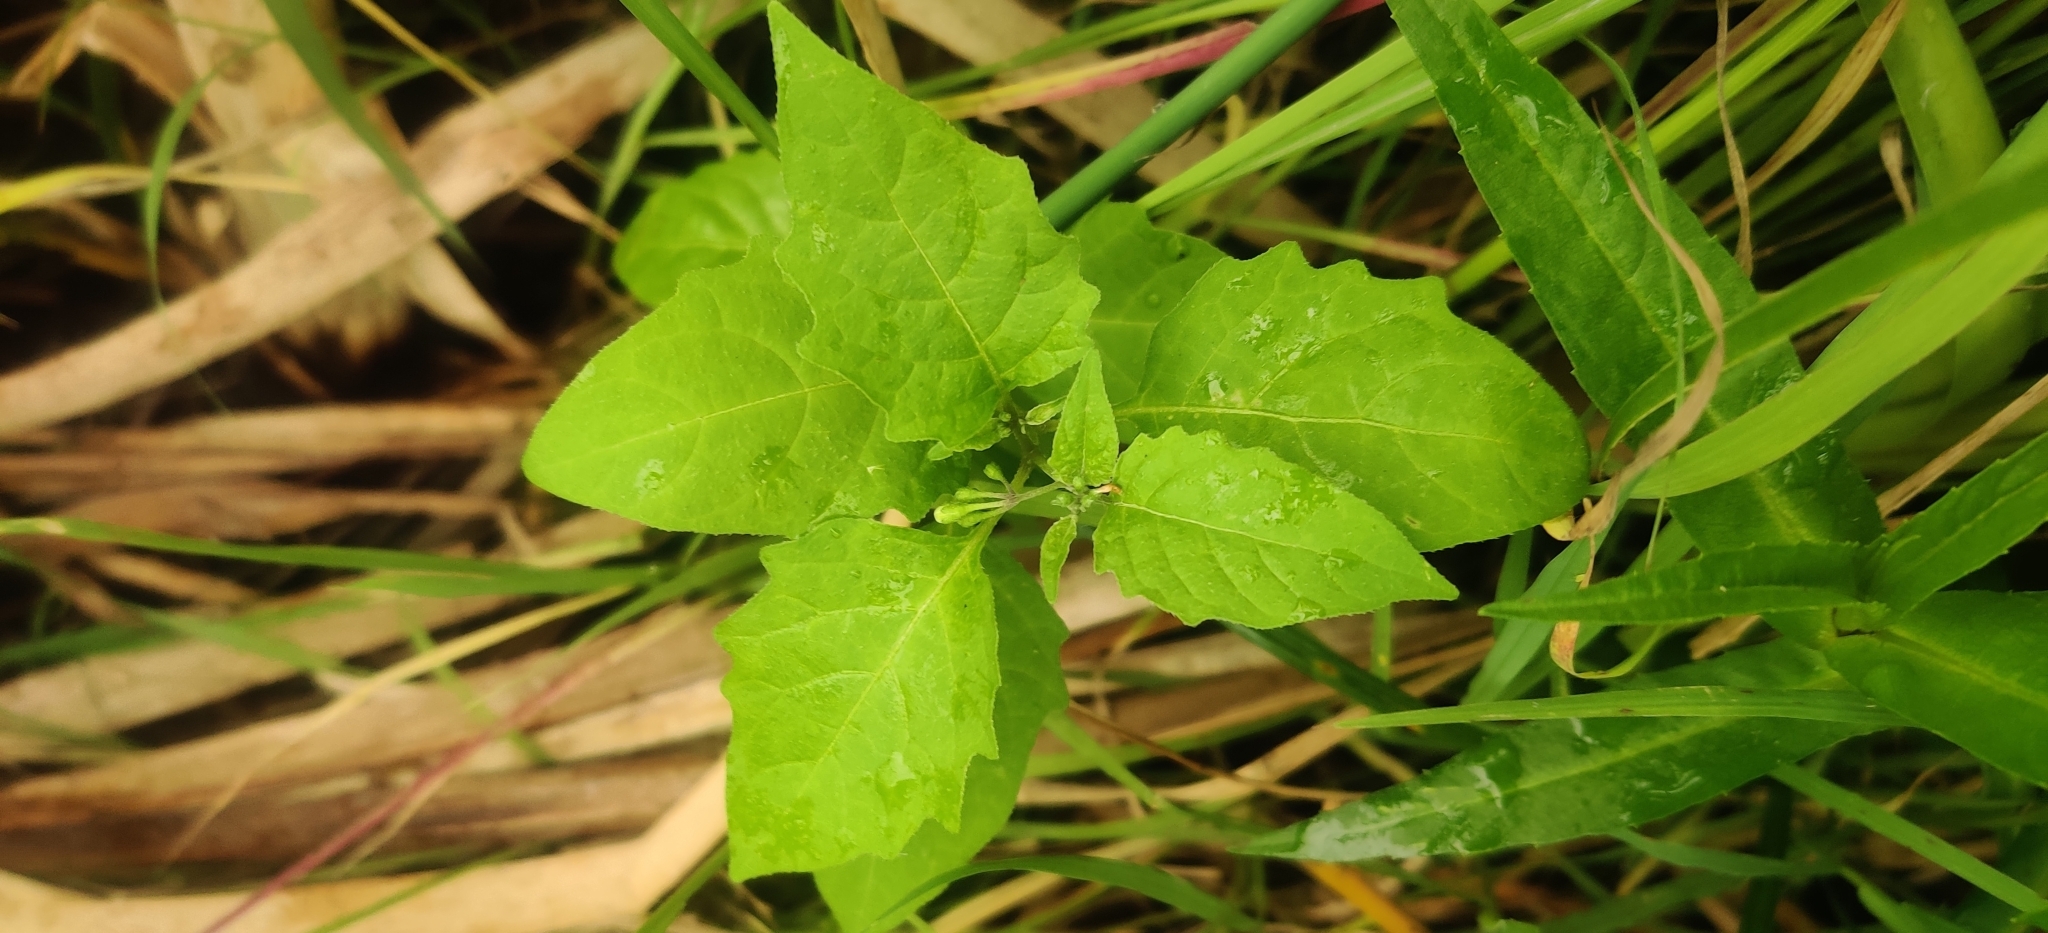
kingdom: Plantae
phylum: Tracheophyta
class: Magnoliopsida
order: Solanales
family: Solanaceae
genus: Solanum
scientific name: Solanum emulans
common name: Eastern black nightshade
